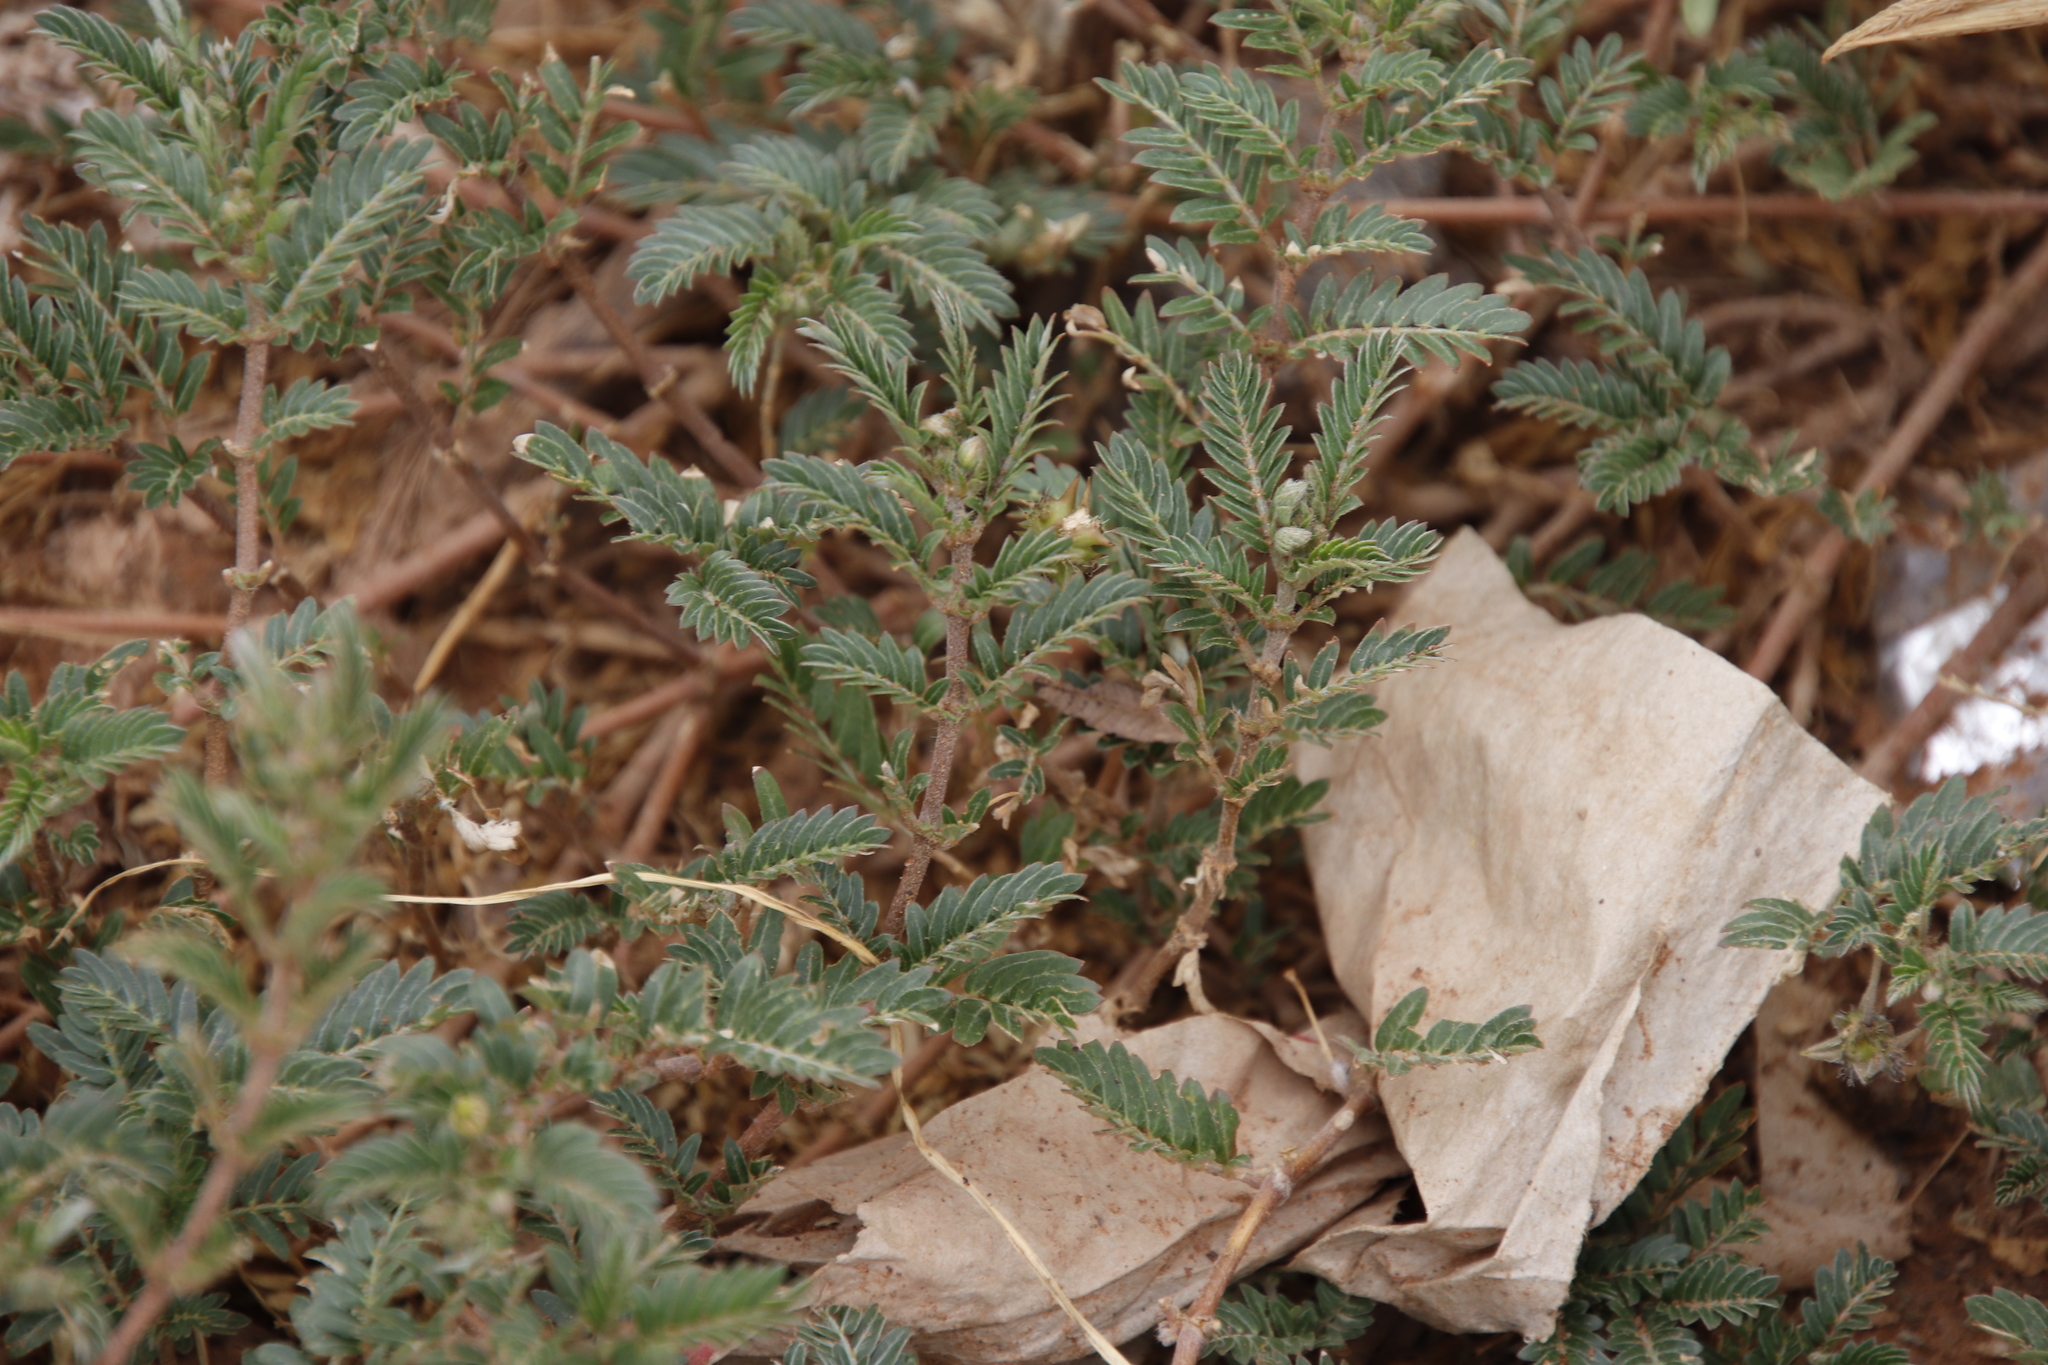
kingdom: Plantae
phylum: Tracheophyta
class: Magnoliopsida
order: Zygophyllales
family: Zygophyllaceae
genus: Tribulus
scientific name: Tribulus terrestris
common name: Puncturevine
